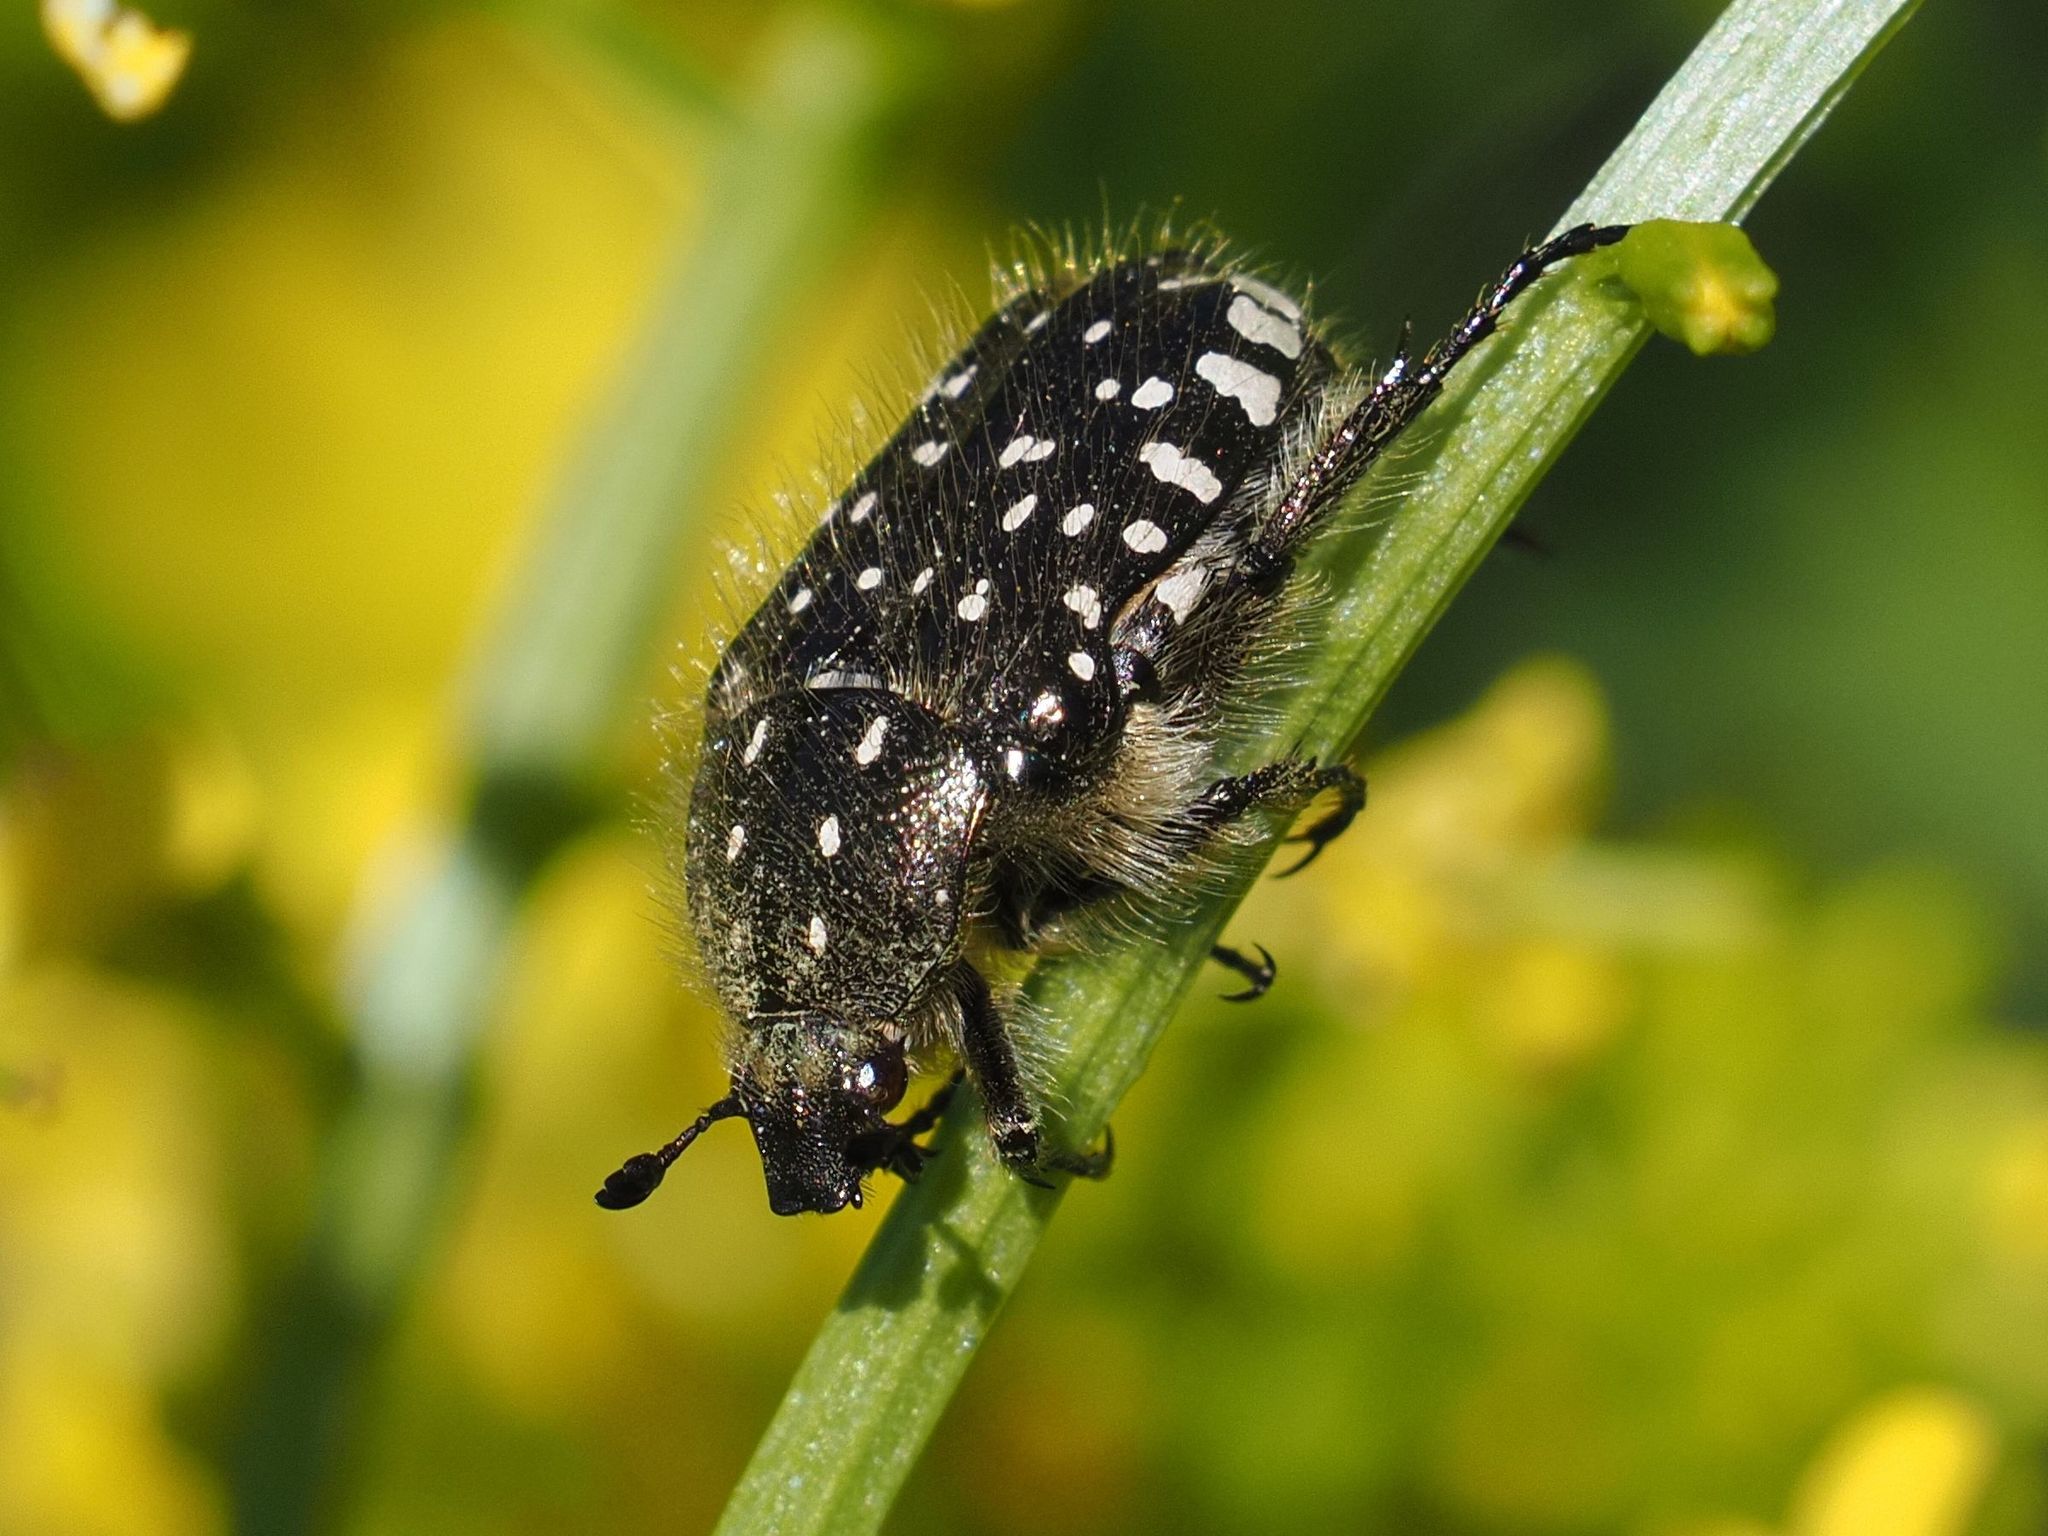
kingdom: Animalia
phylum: Arthropoda
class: Insecta
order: Coleoptera
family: Scarabaeidae
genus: Oxythyrea
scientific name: Oxythyrea funesta
